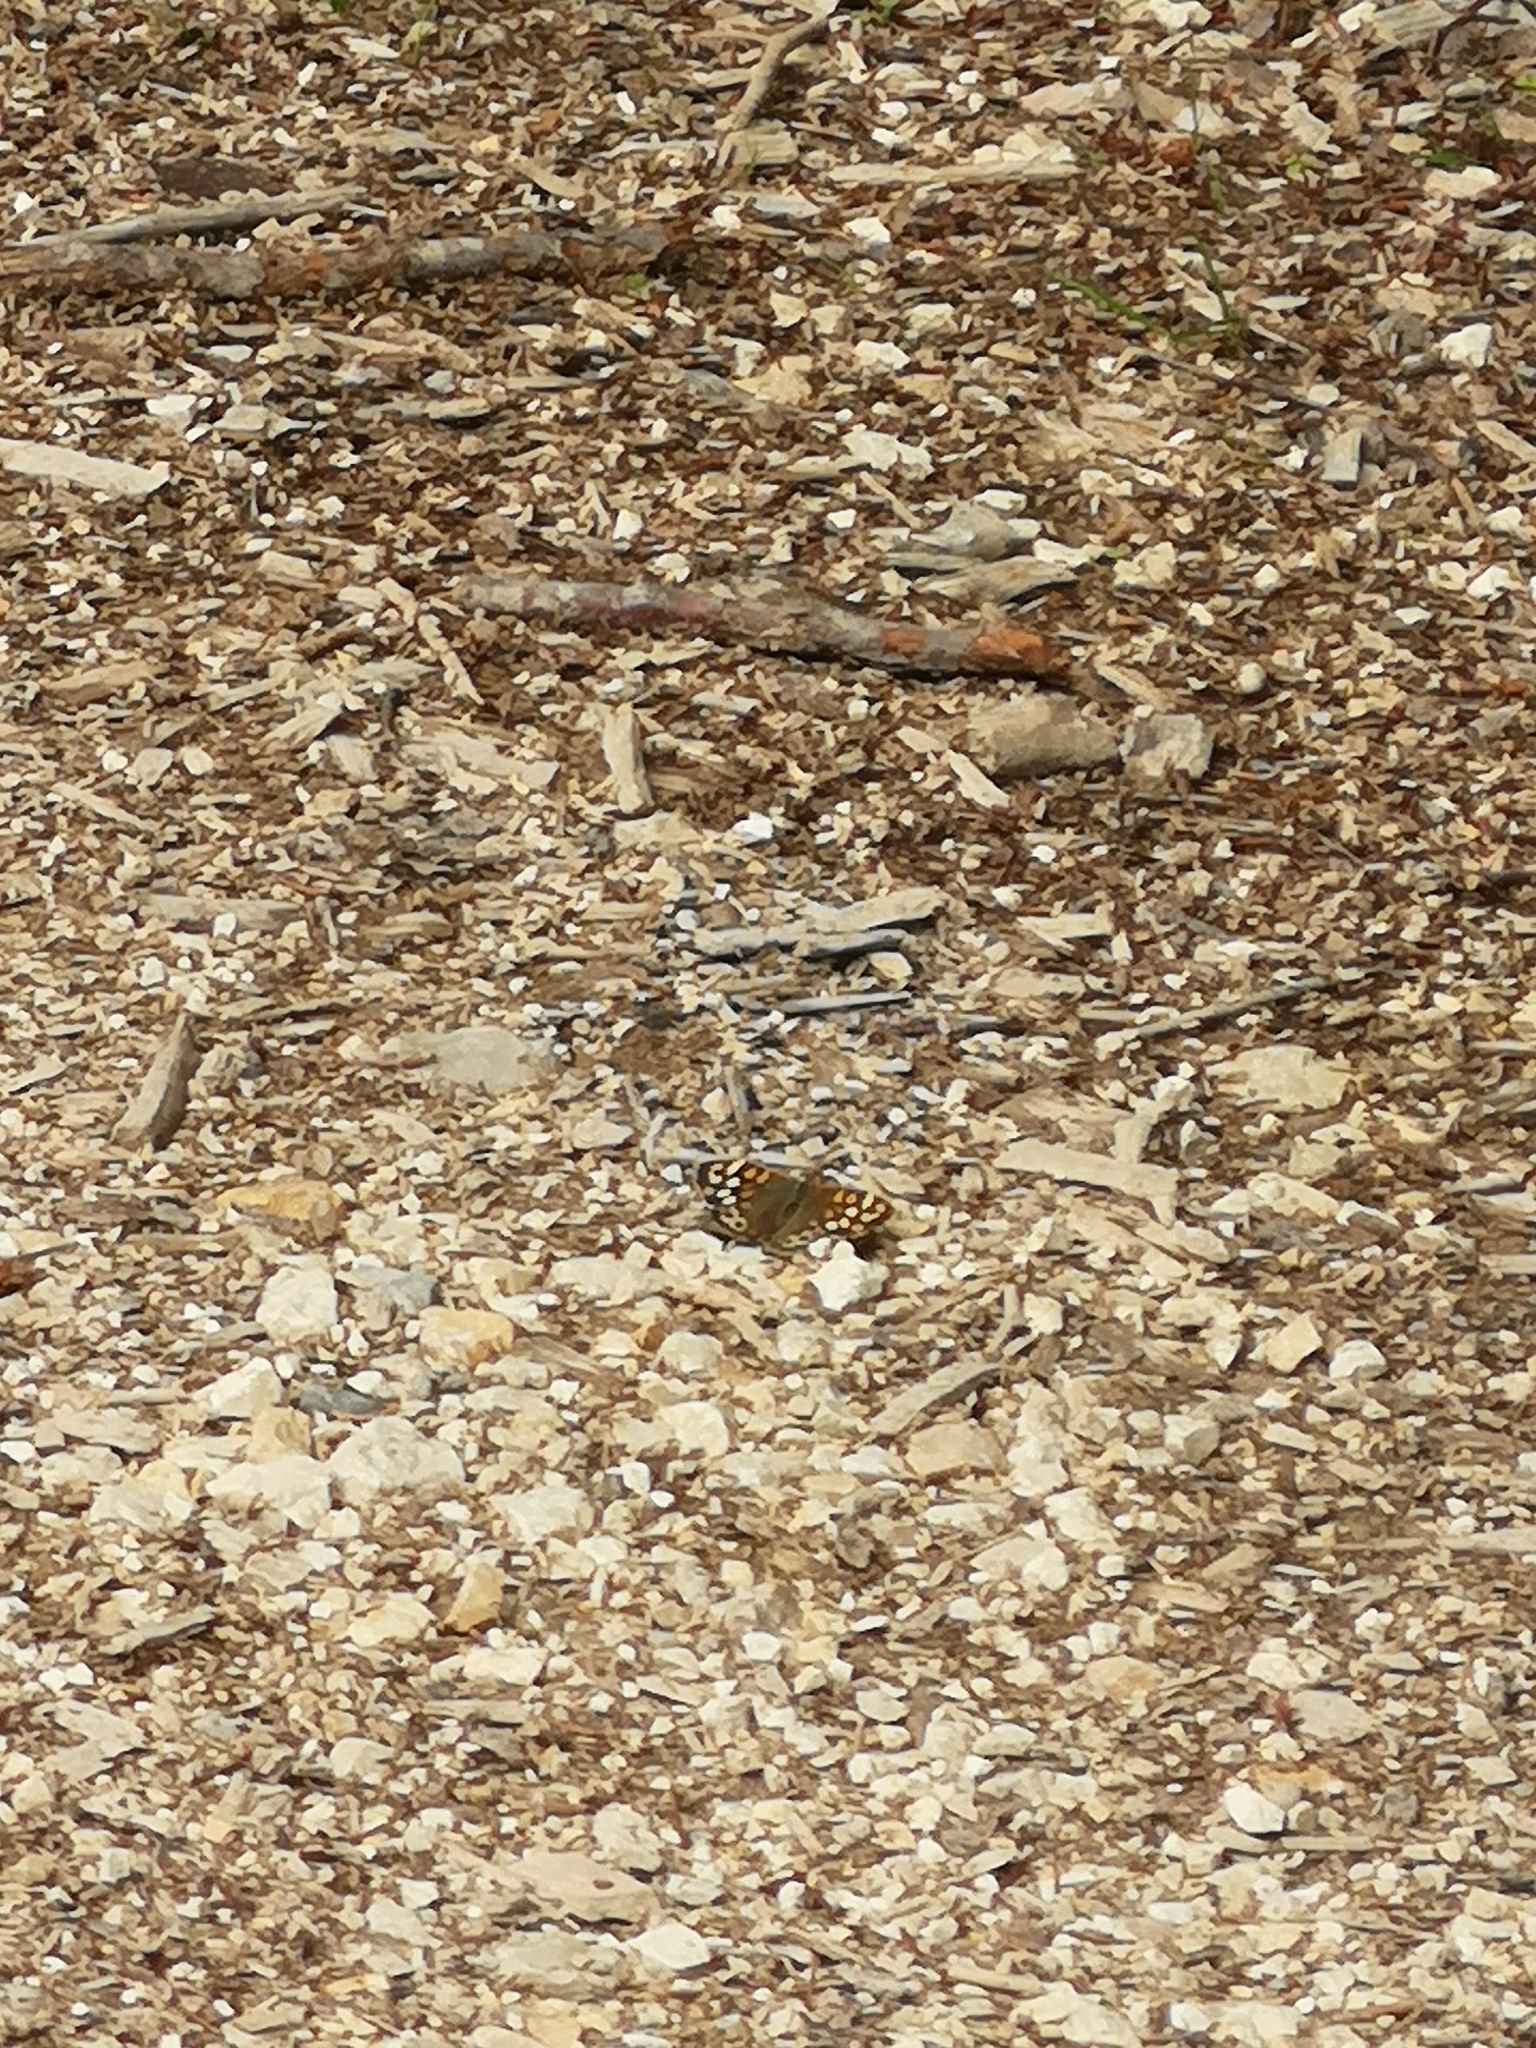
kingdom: Animalia
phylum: Arthropoda
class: Insecta
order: Lepidoptera
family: Nymphalidae
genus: Pararge
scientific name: Pararge aegeria
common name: Speckled wood
